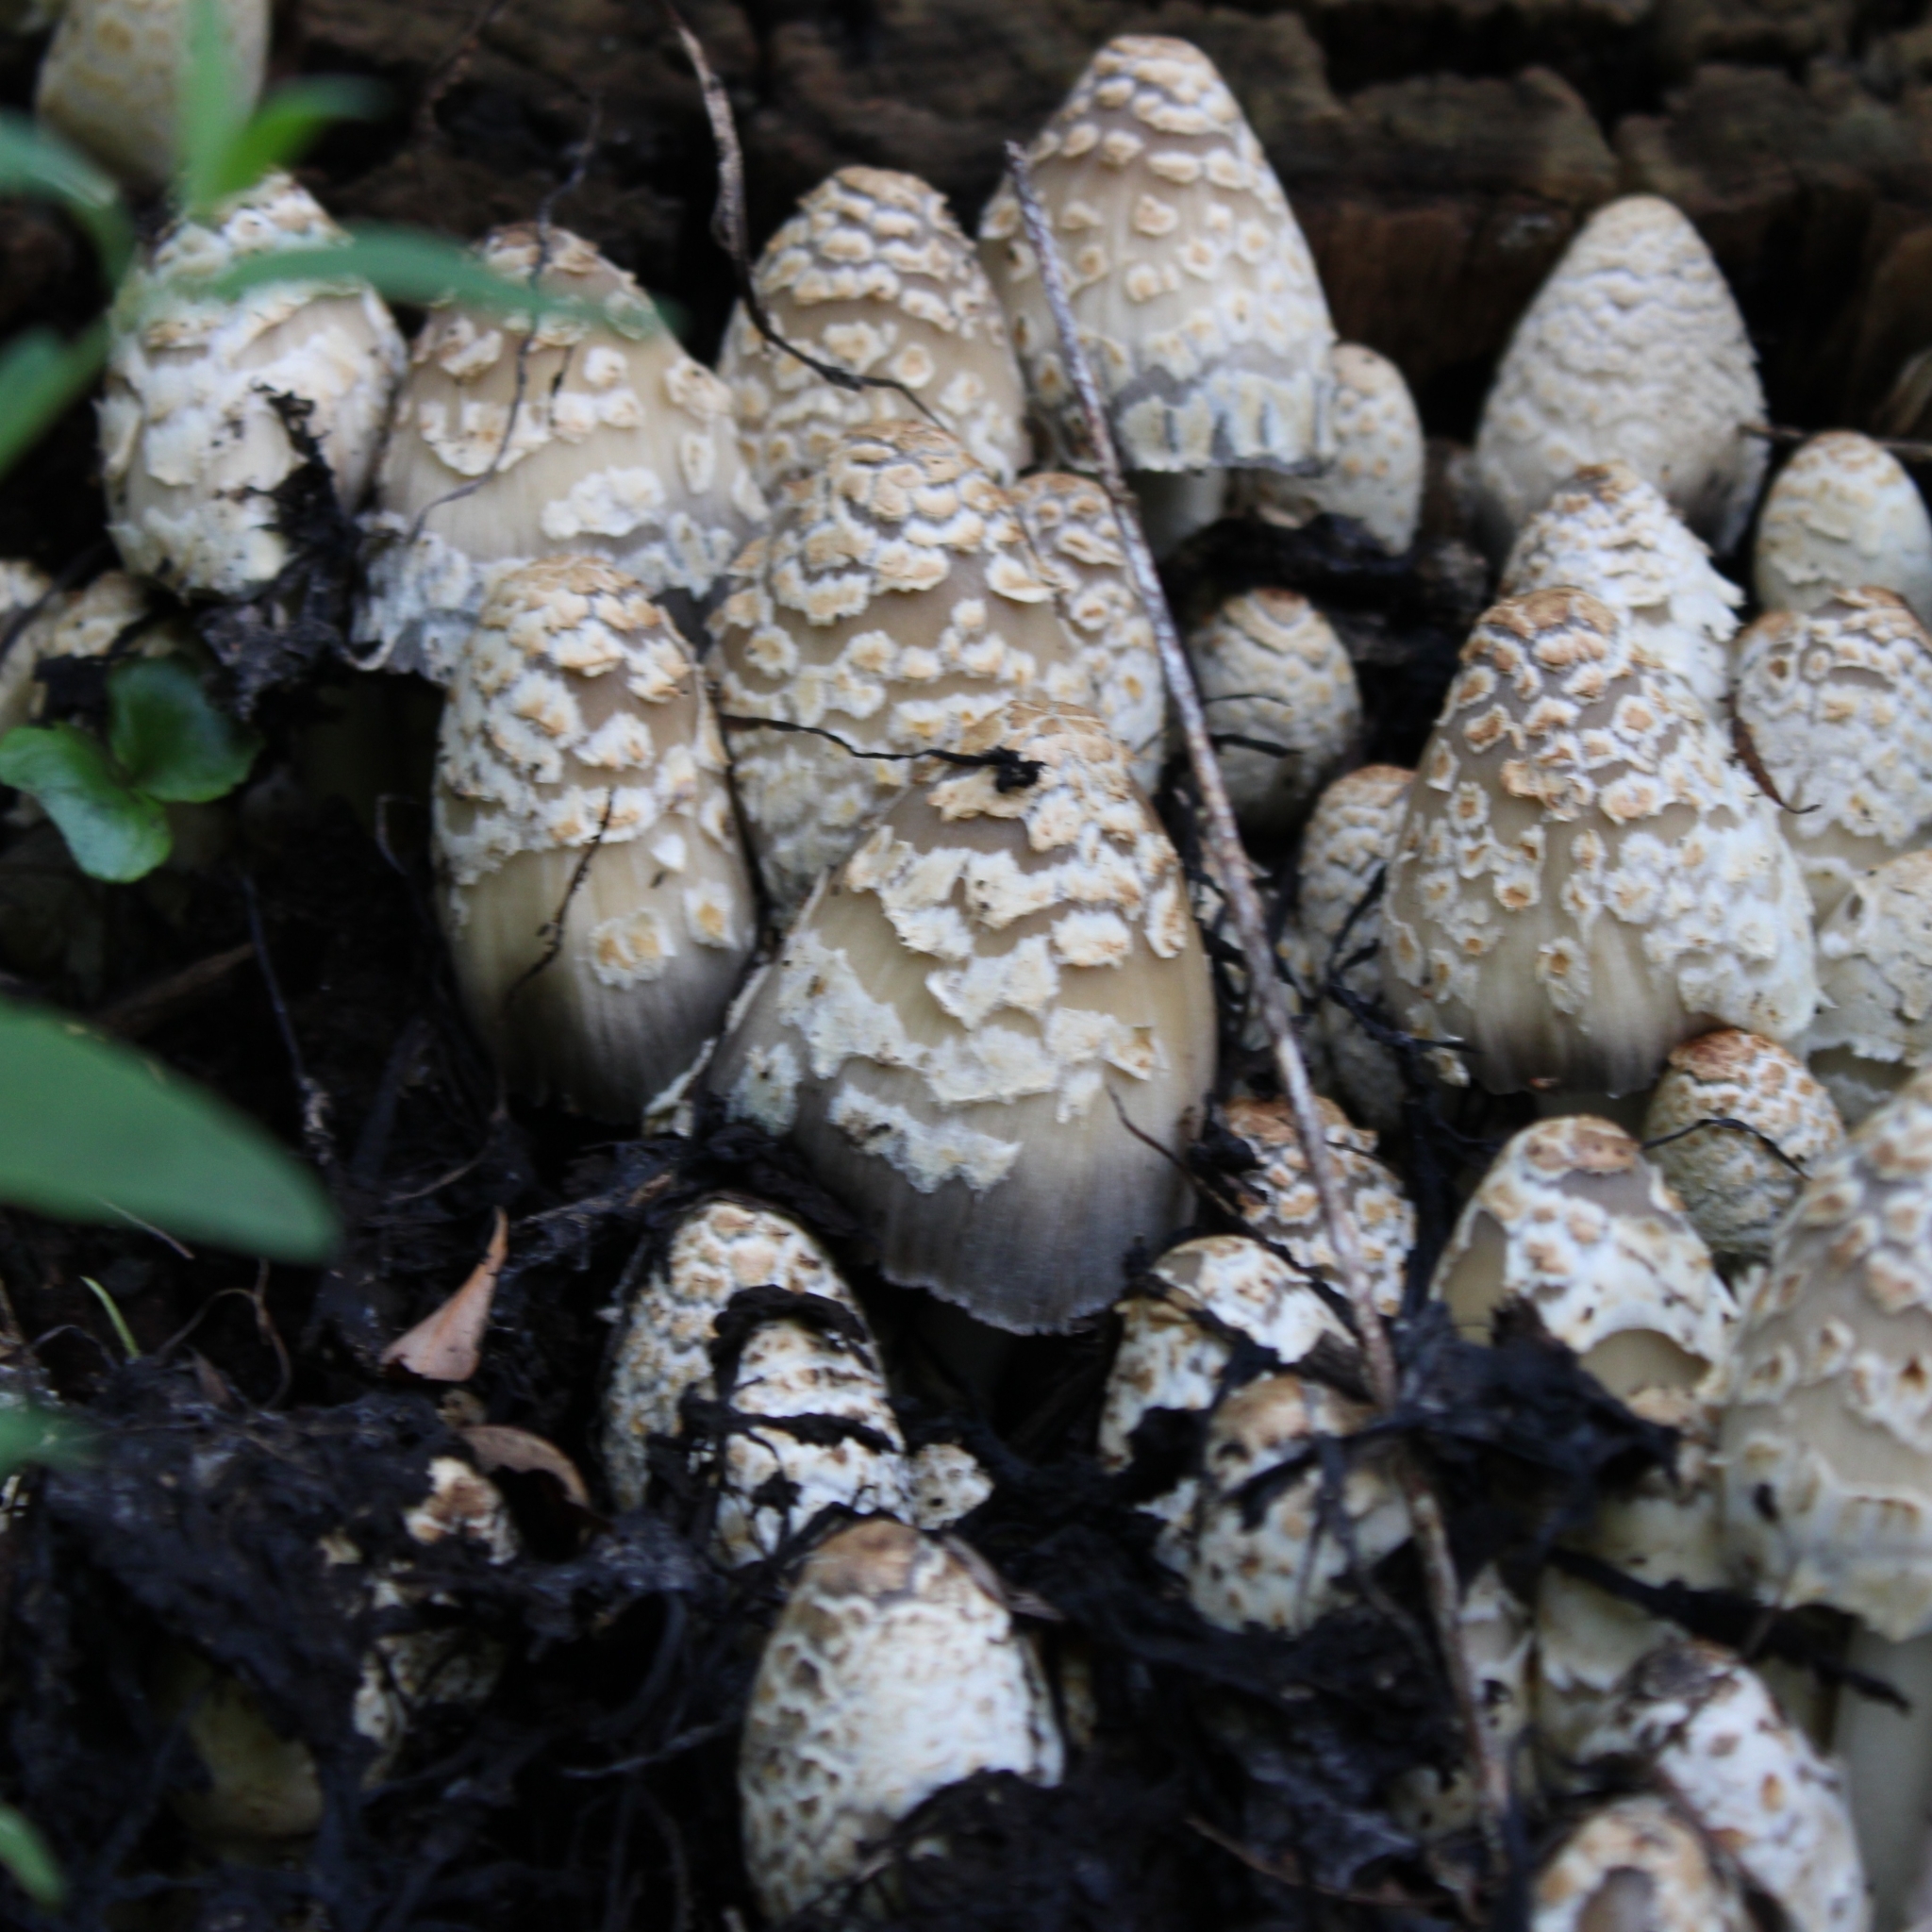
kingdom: Fungi
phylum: Basidiomycota
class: Agaricomycetes
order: Agaricales
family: Psathyrellaceae
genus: Coprinopsis
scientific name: Coprinopsis variegata
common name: Scaly ink cap
